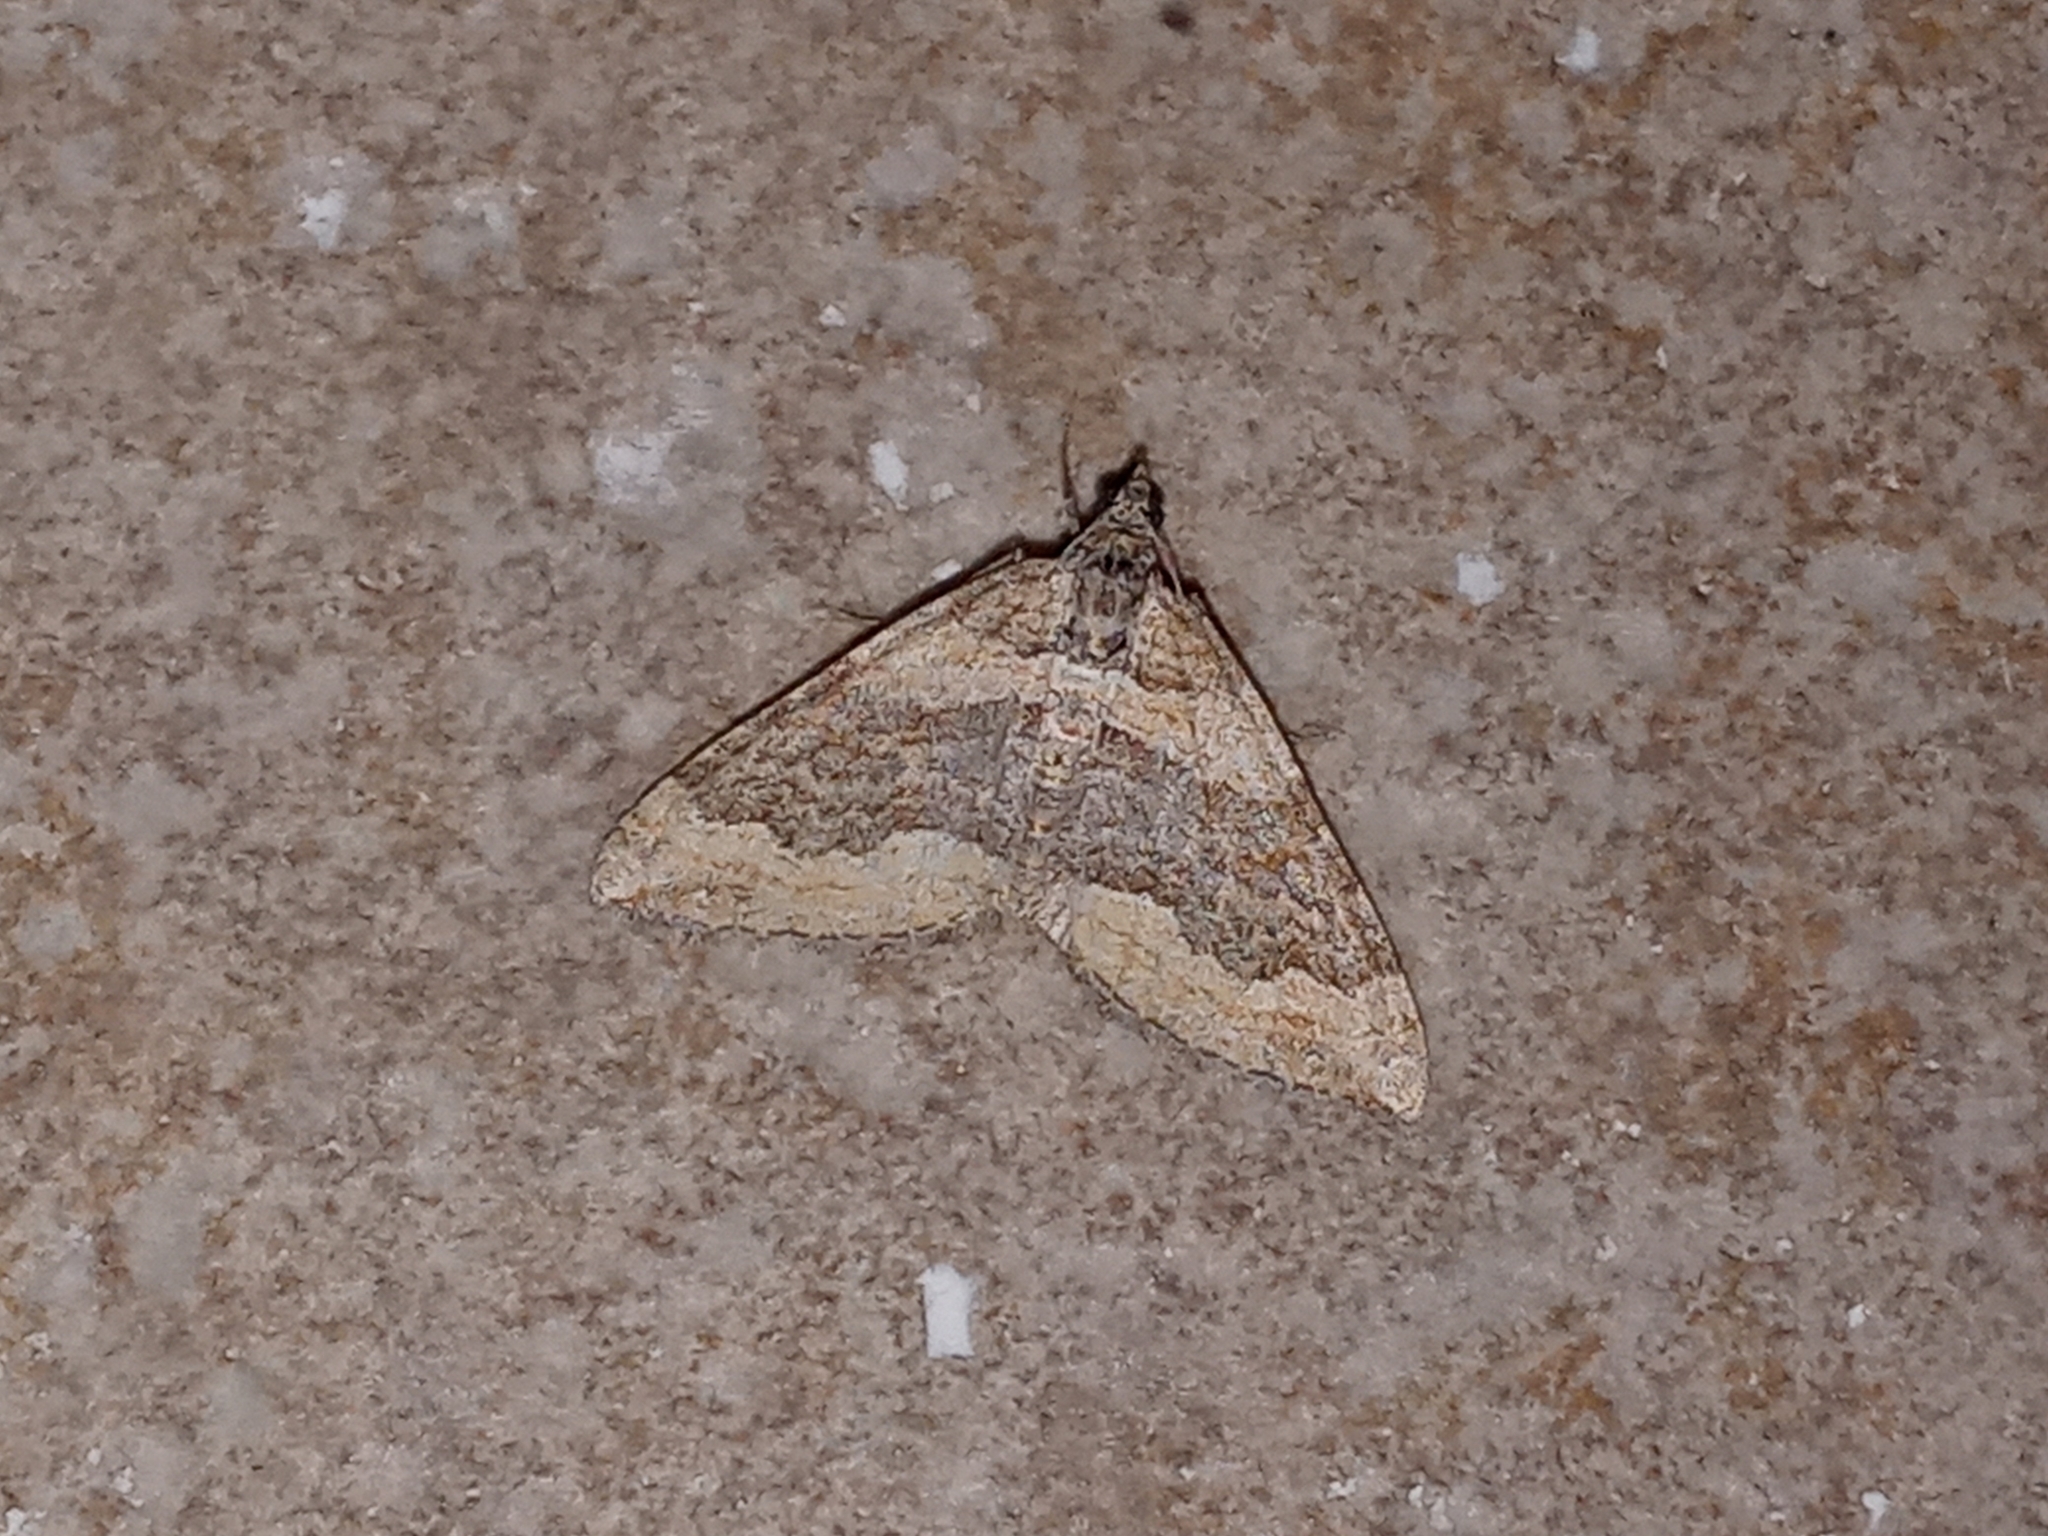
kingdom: Animalia
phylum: Arthropoda
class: Insecta
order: Lepidoptera
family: Geometridae
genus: Perizoma
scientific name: Perizoma custodiata
